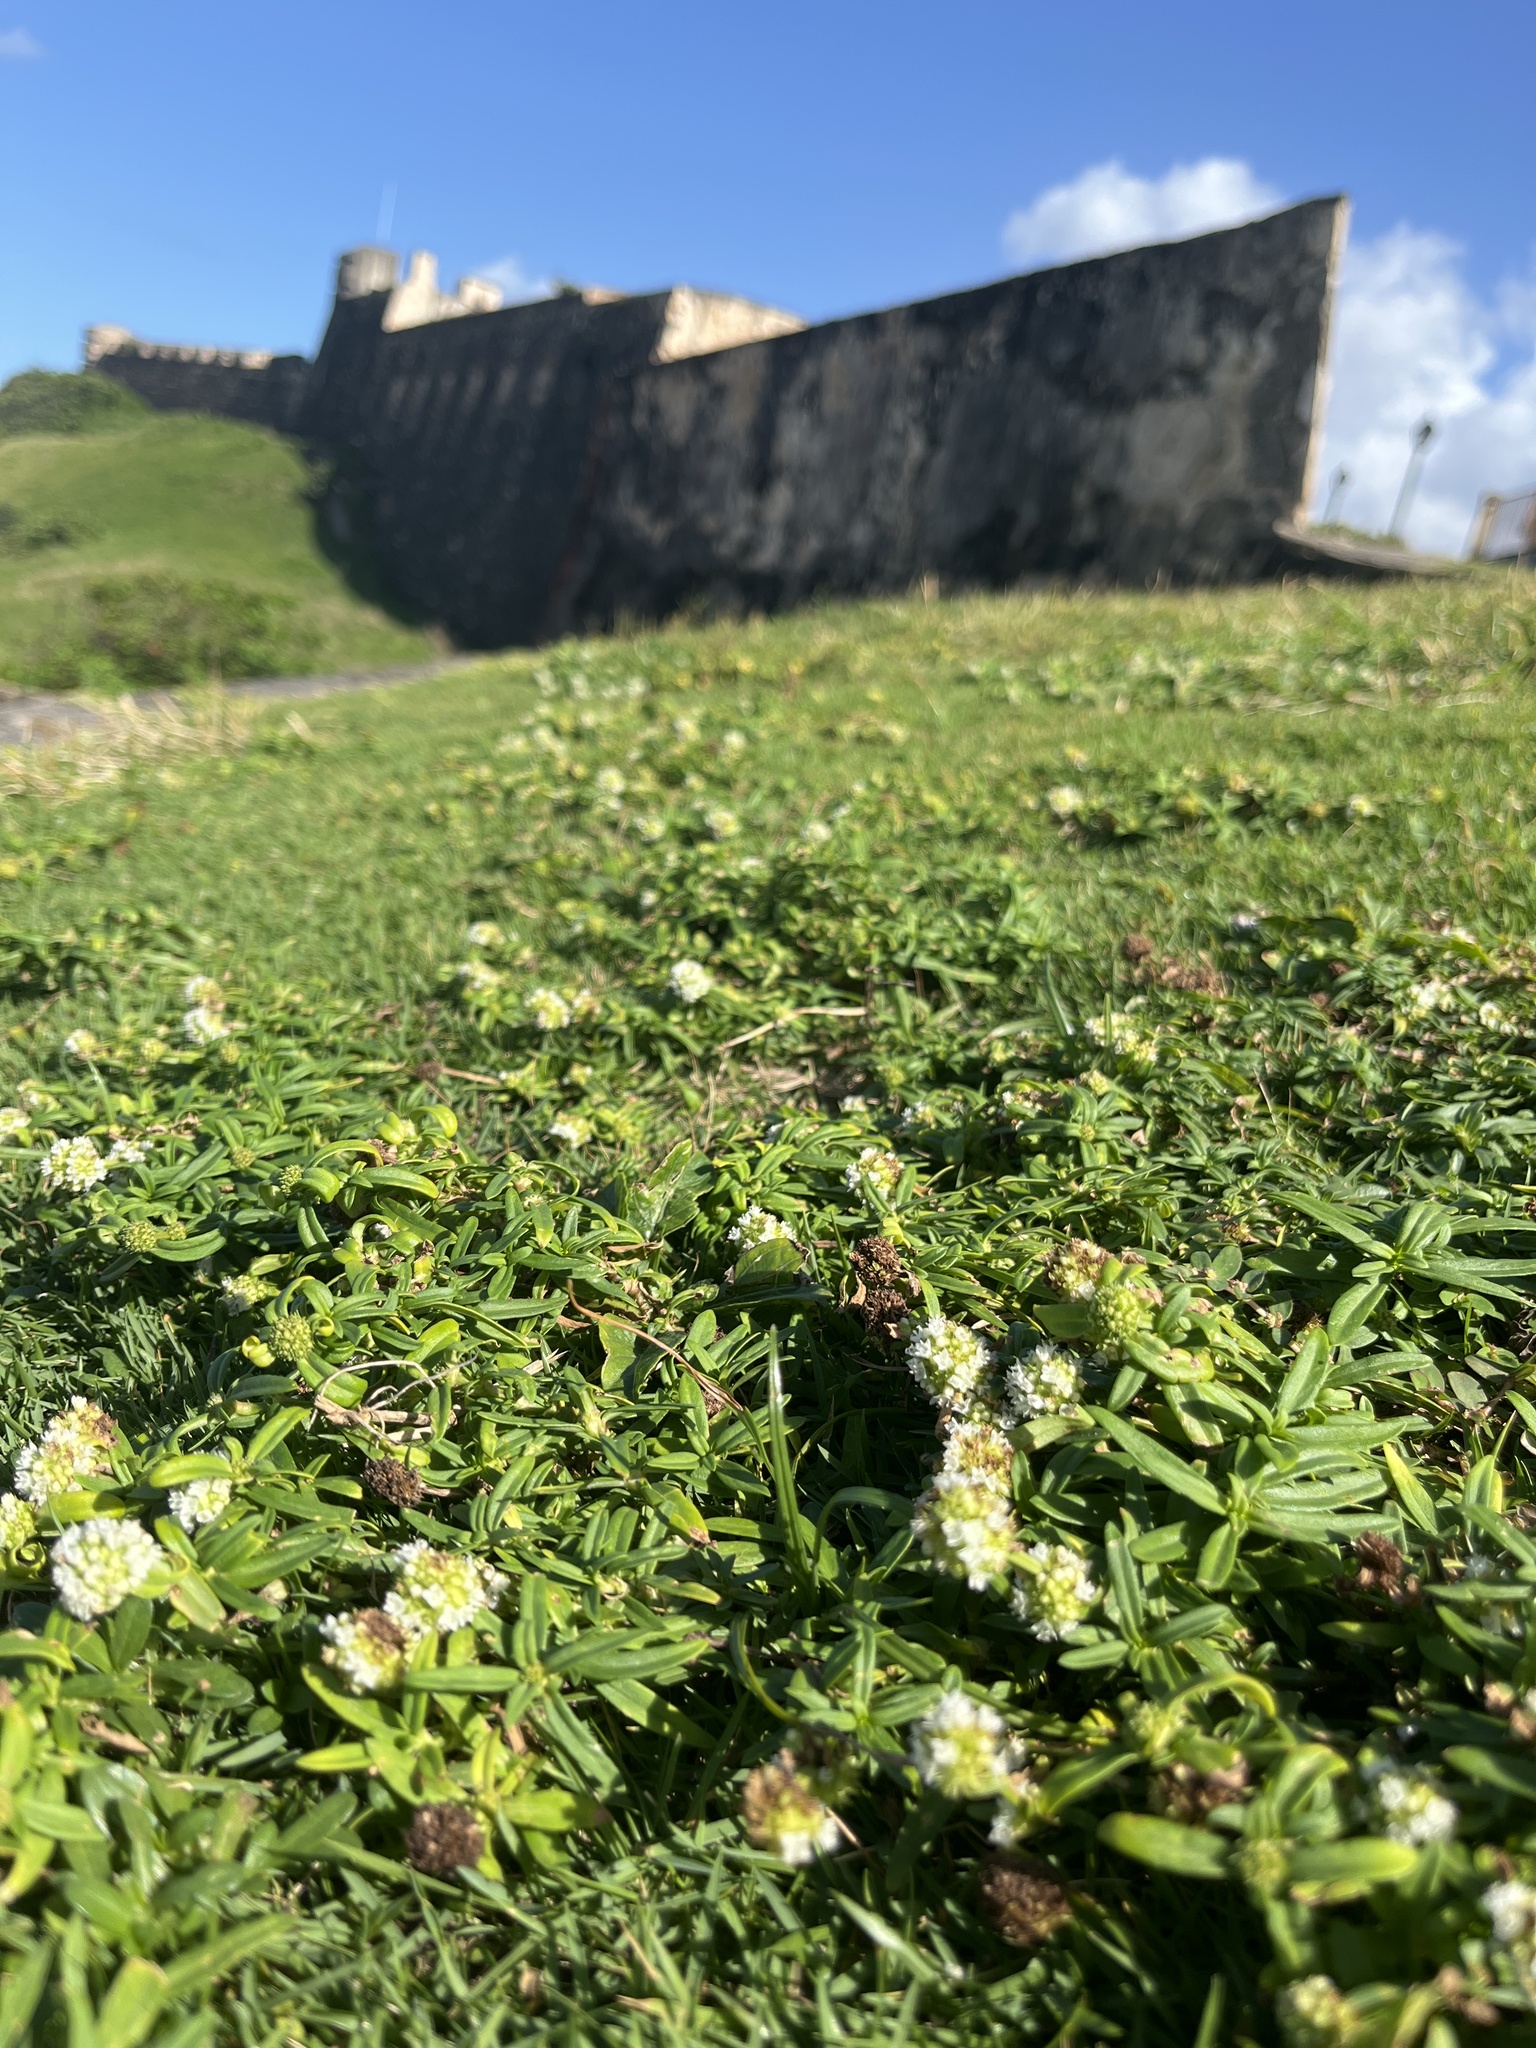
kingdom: Plantae
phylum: Tracheophyta
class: Magnoliopsida
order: Gentianales
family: Rubiaceae
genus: Spermacoce
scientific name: Spermacoce verticillata
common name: Shrubby false buttonweed
